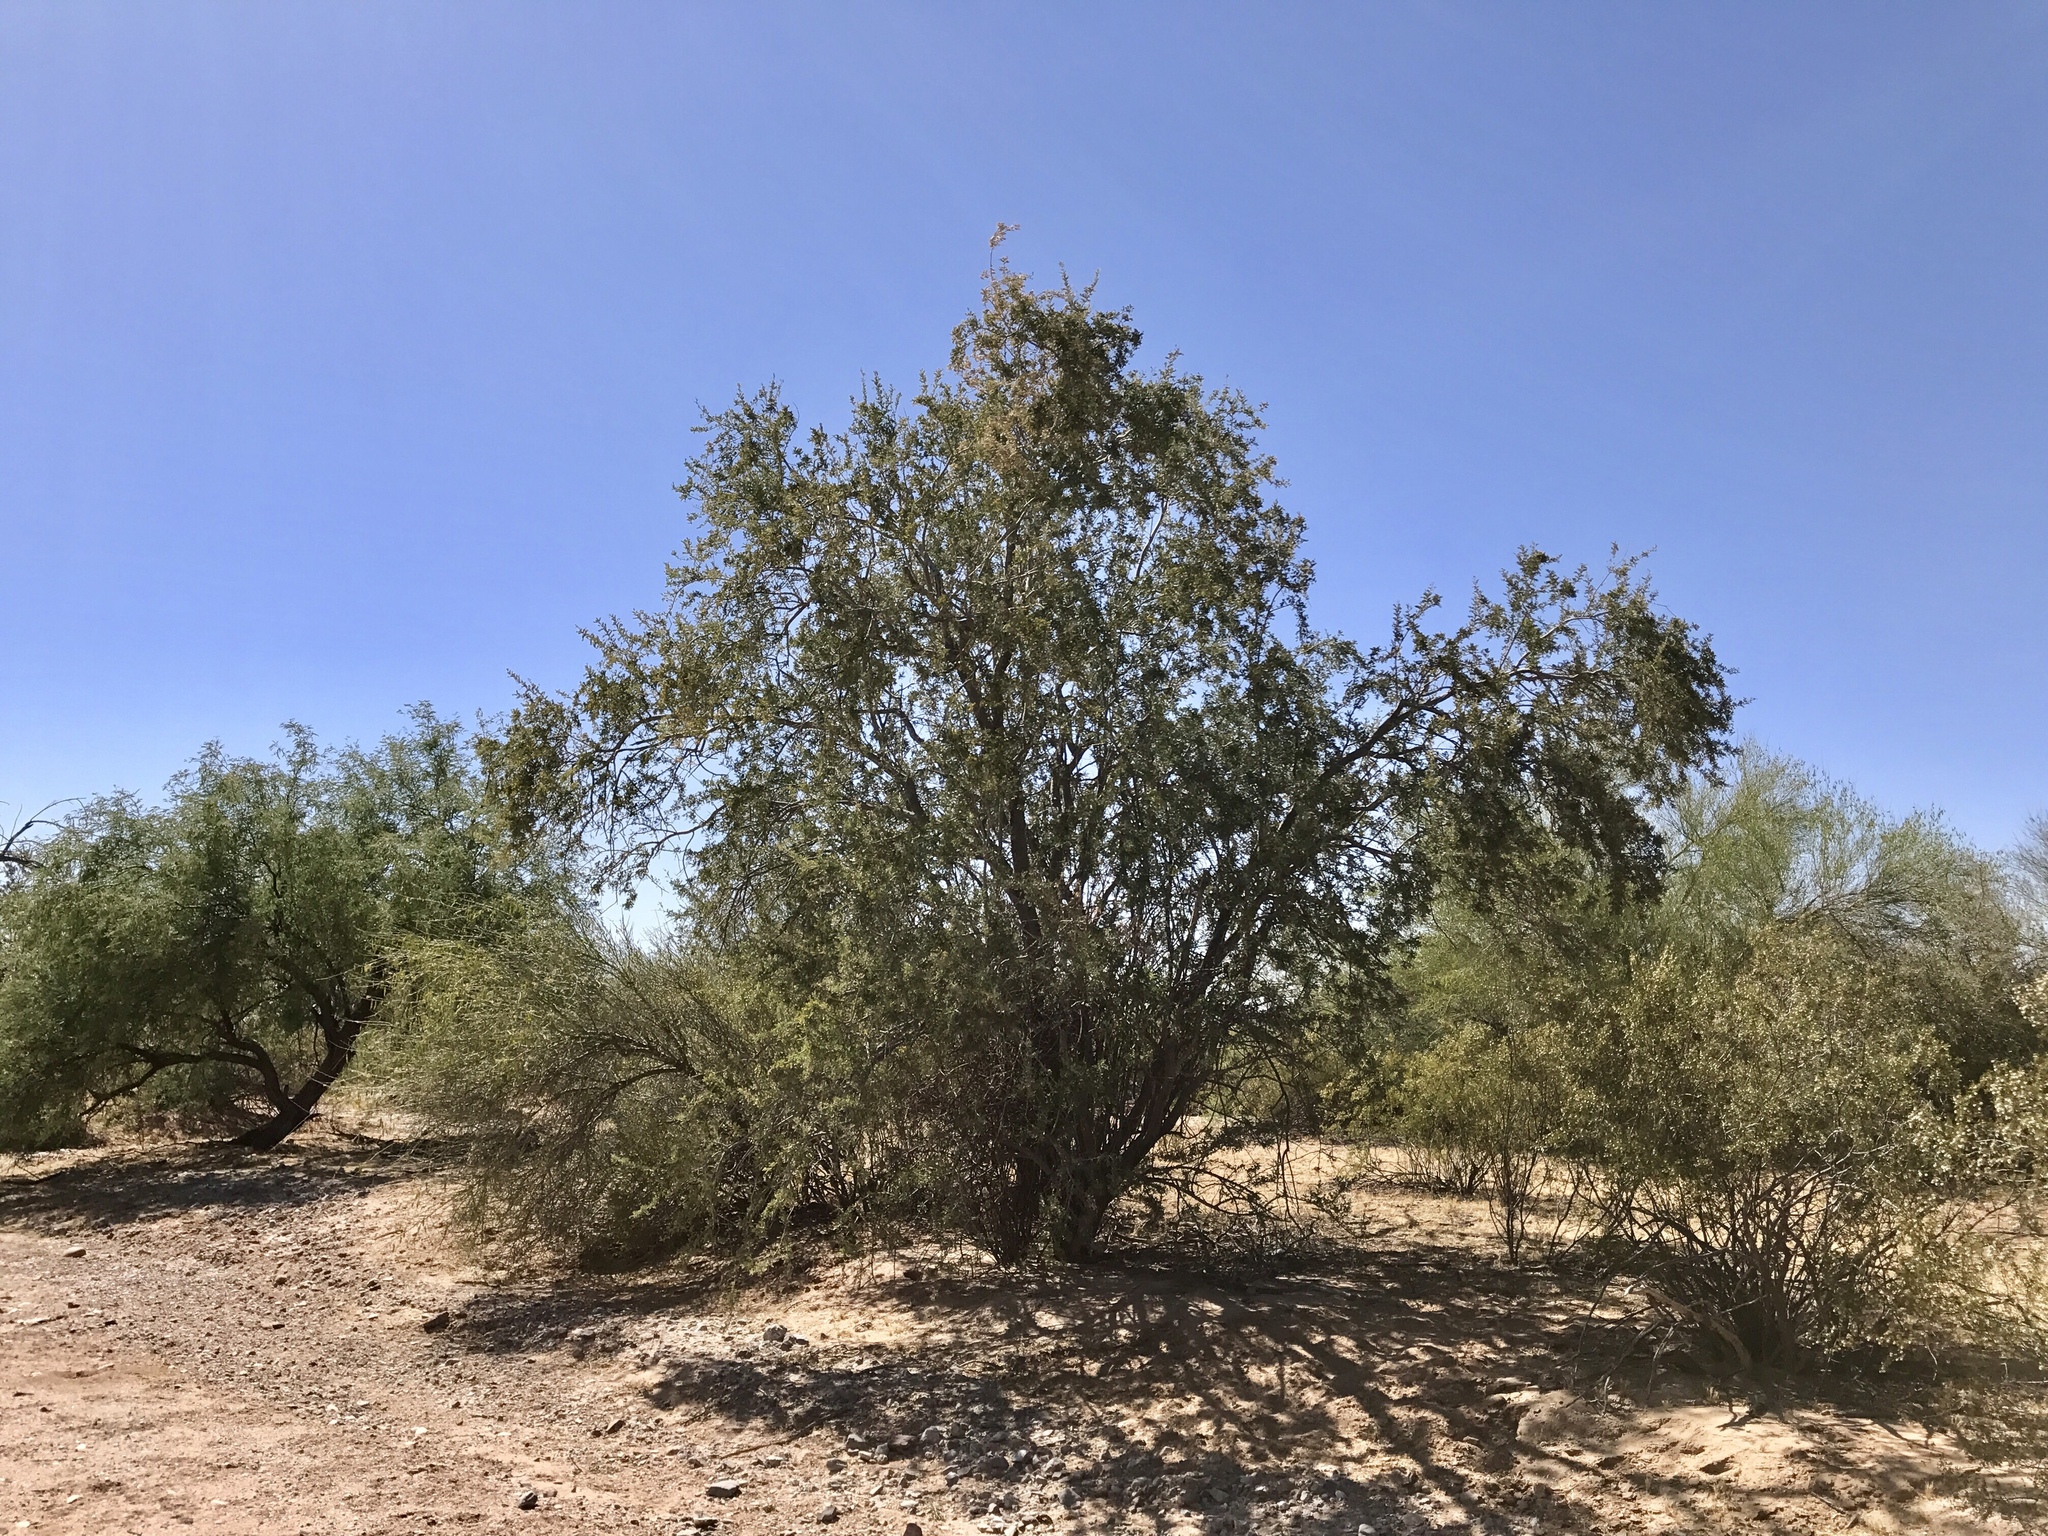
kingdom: Plantae
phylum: Tracheophyta
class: Magnoliopsida
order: Fabales
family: Fabaceae
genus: Olneya
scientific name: Olneya tesota
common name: Desert ironwood
